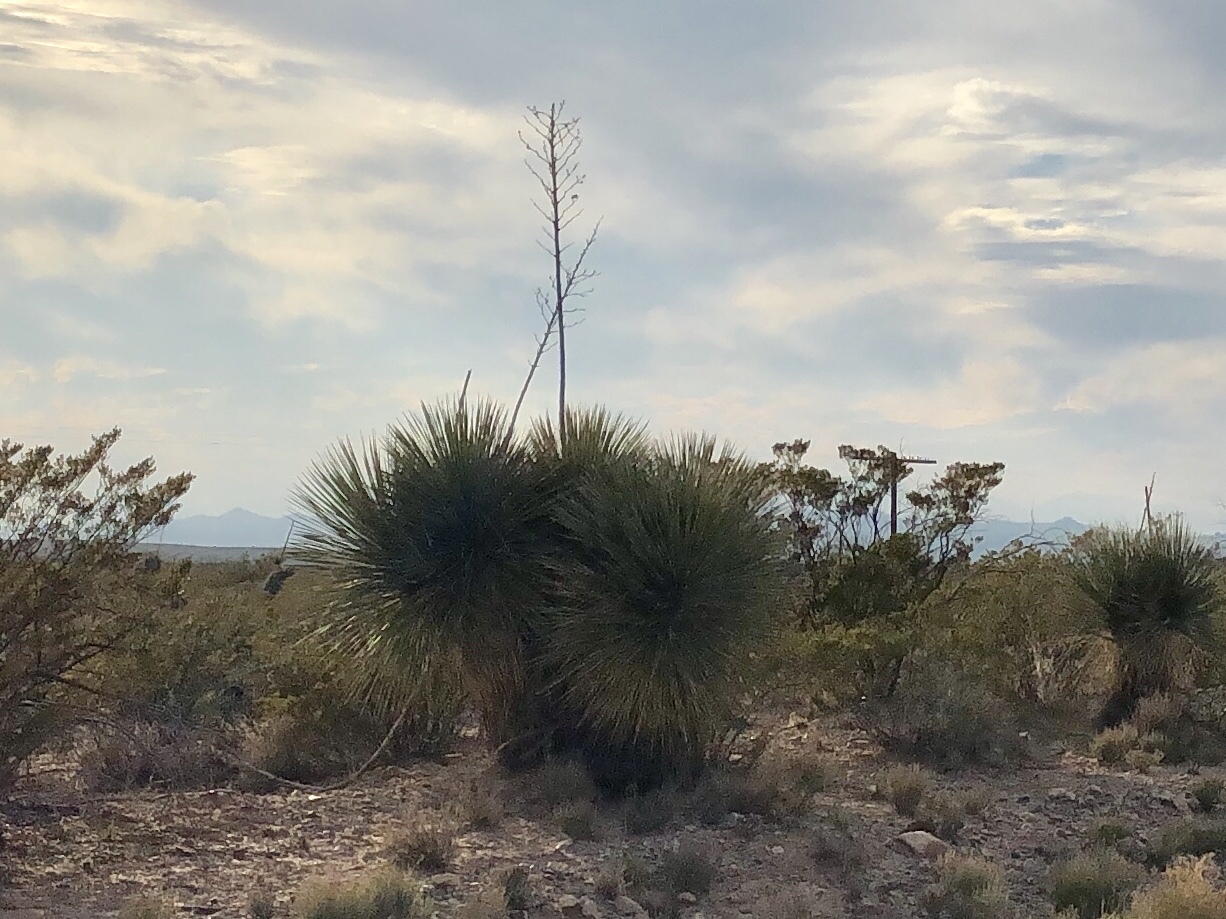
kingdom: Plantae
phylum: Tracheophyta
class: Liliopsida
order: Asparagales
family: Asparagaceae
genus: Yucca
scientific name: Yucca elata
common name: Palmella
